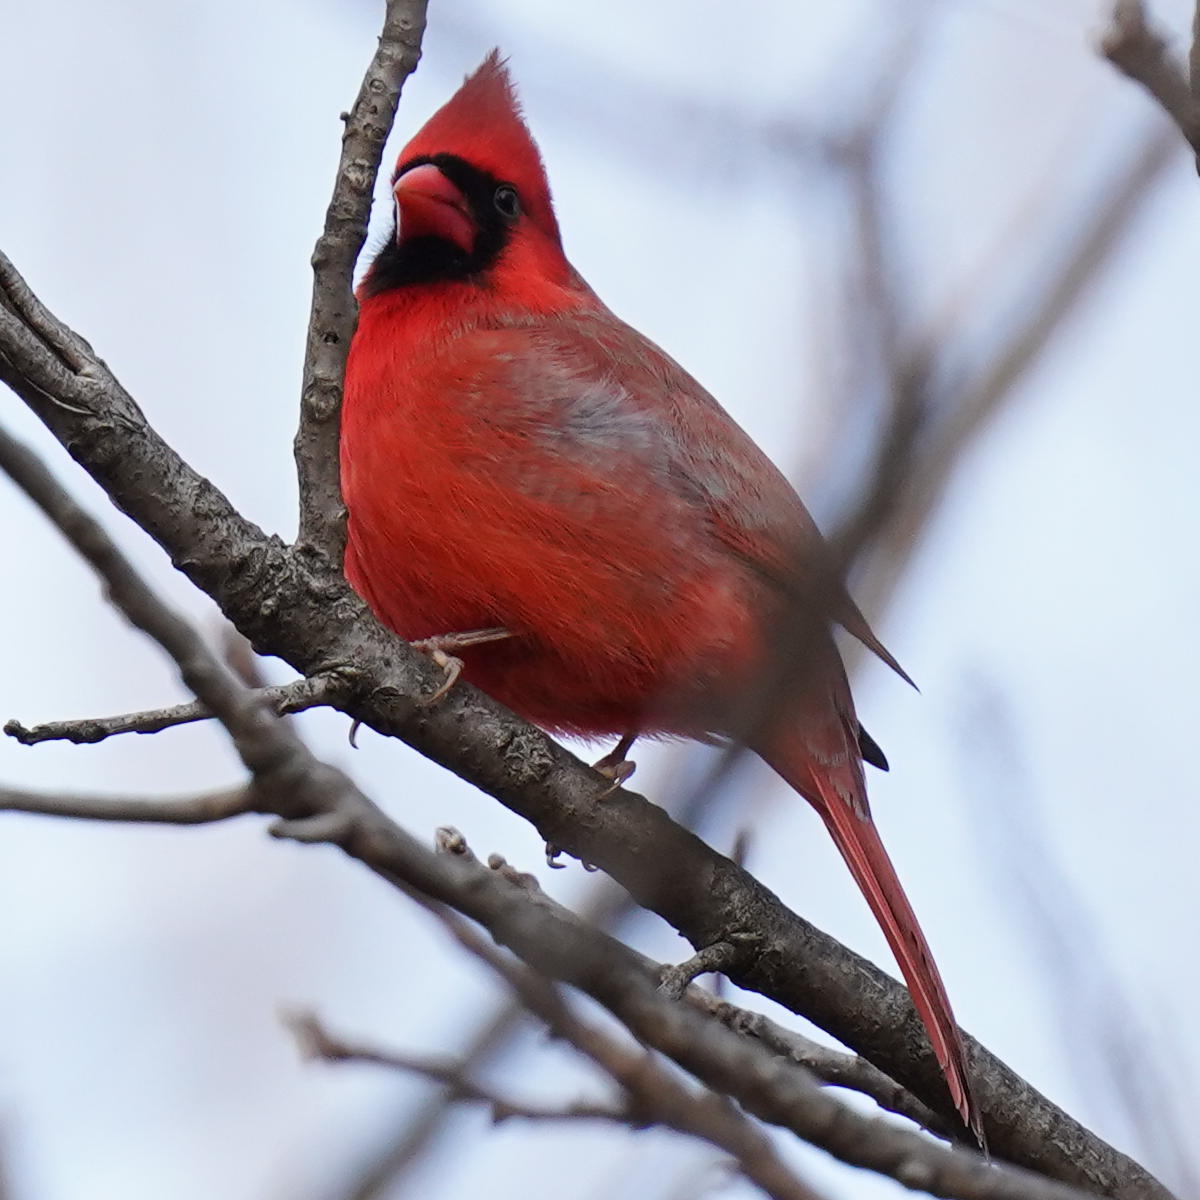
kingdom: Animalia
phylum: Chordata
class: Aves
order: Passeriformes
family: Cardinalidae
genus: Cardinalis
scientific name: Cardinalis cardinalis
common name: Northern cardinal
